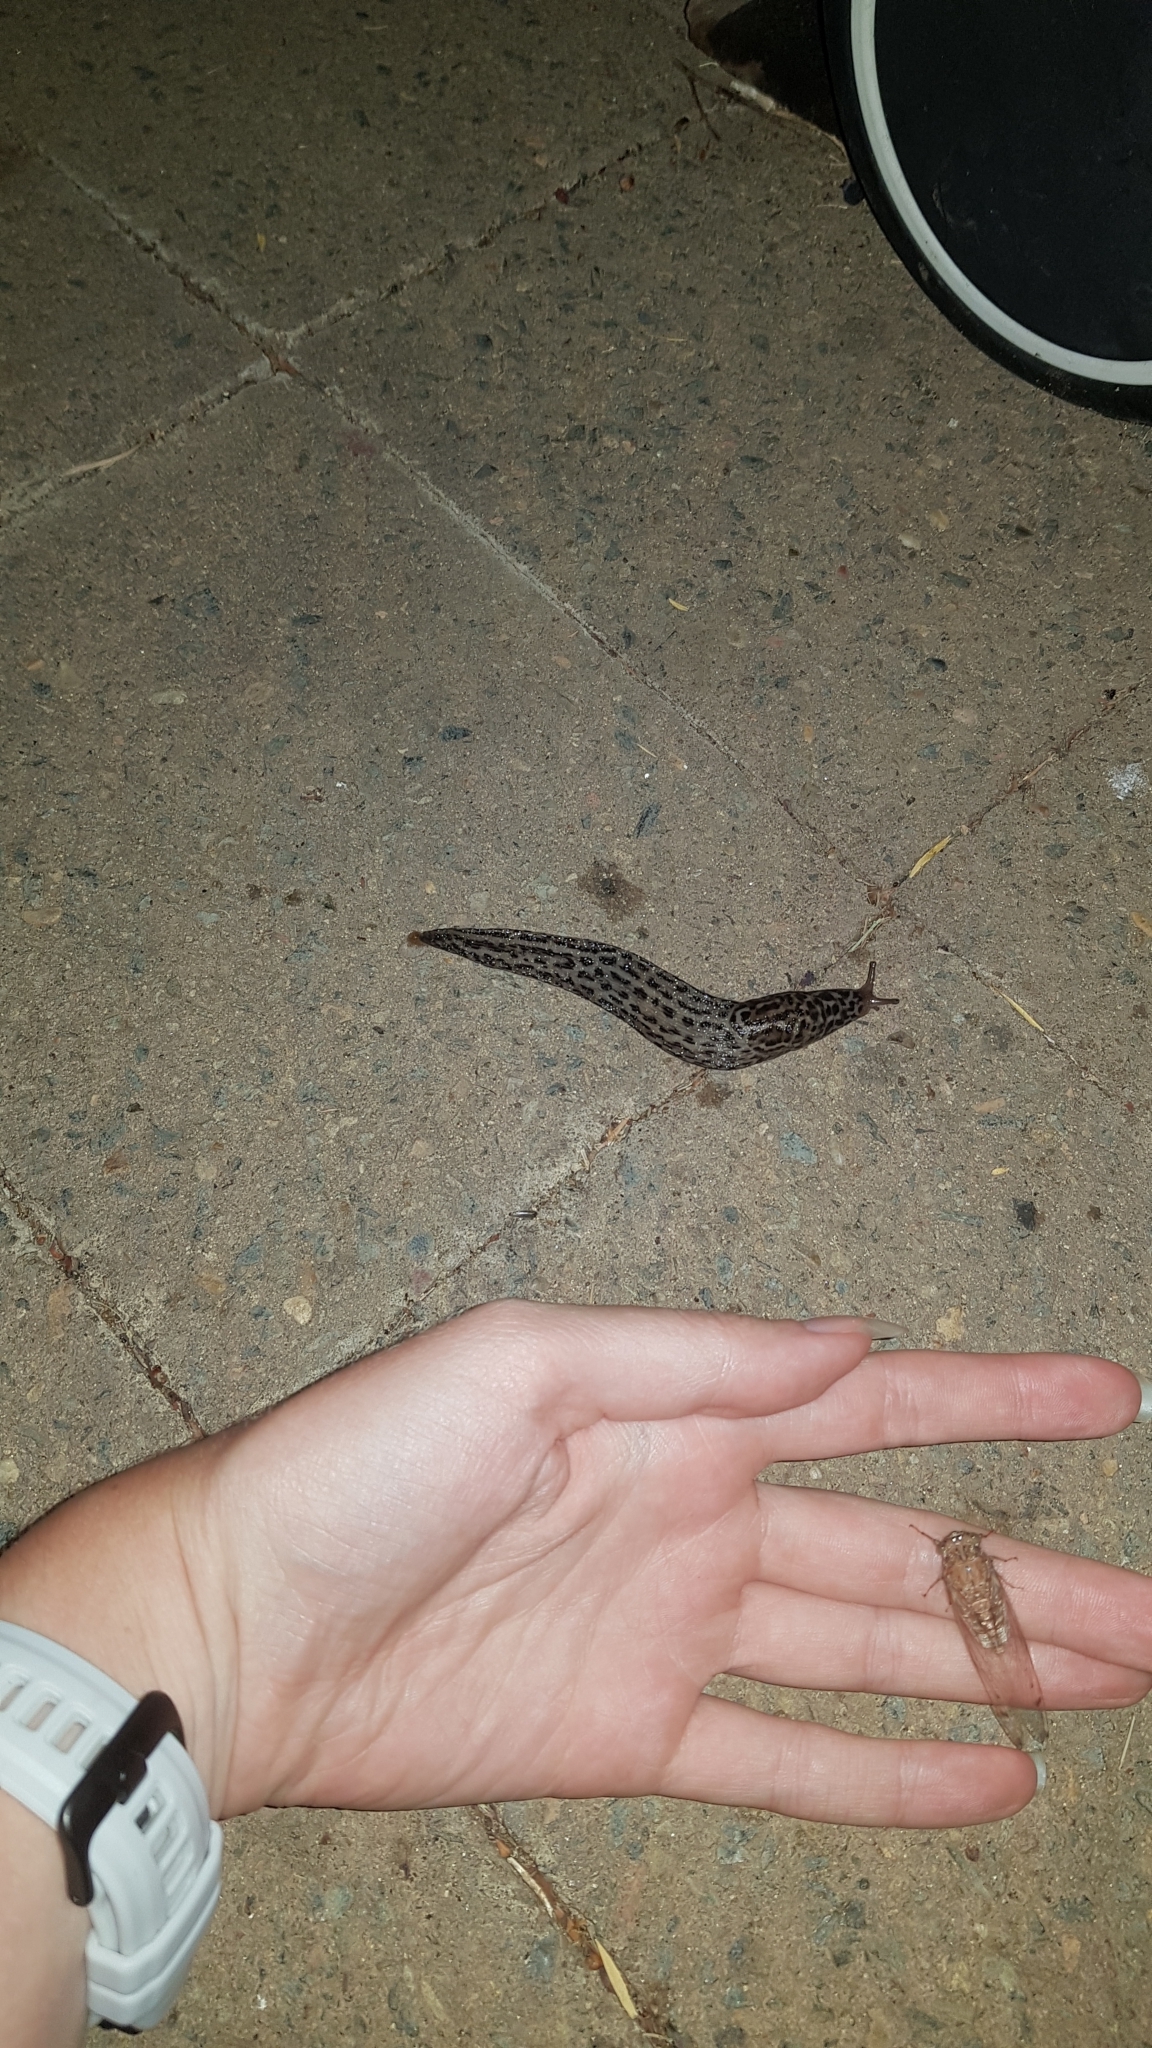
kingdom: Animalia
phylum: Mollusca
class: Gastropoda
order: Stylommatophora
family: Limacidae
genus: Limax
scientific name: Limax maximus
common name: Great grey slug
